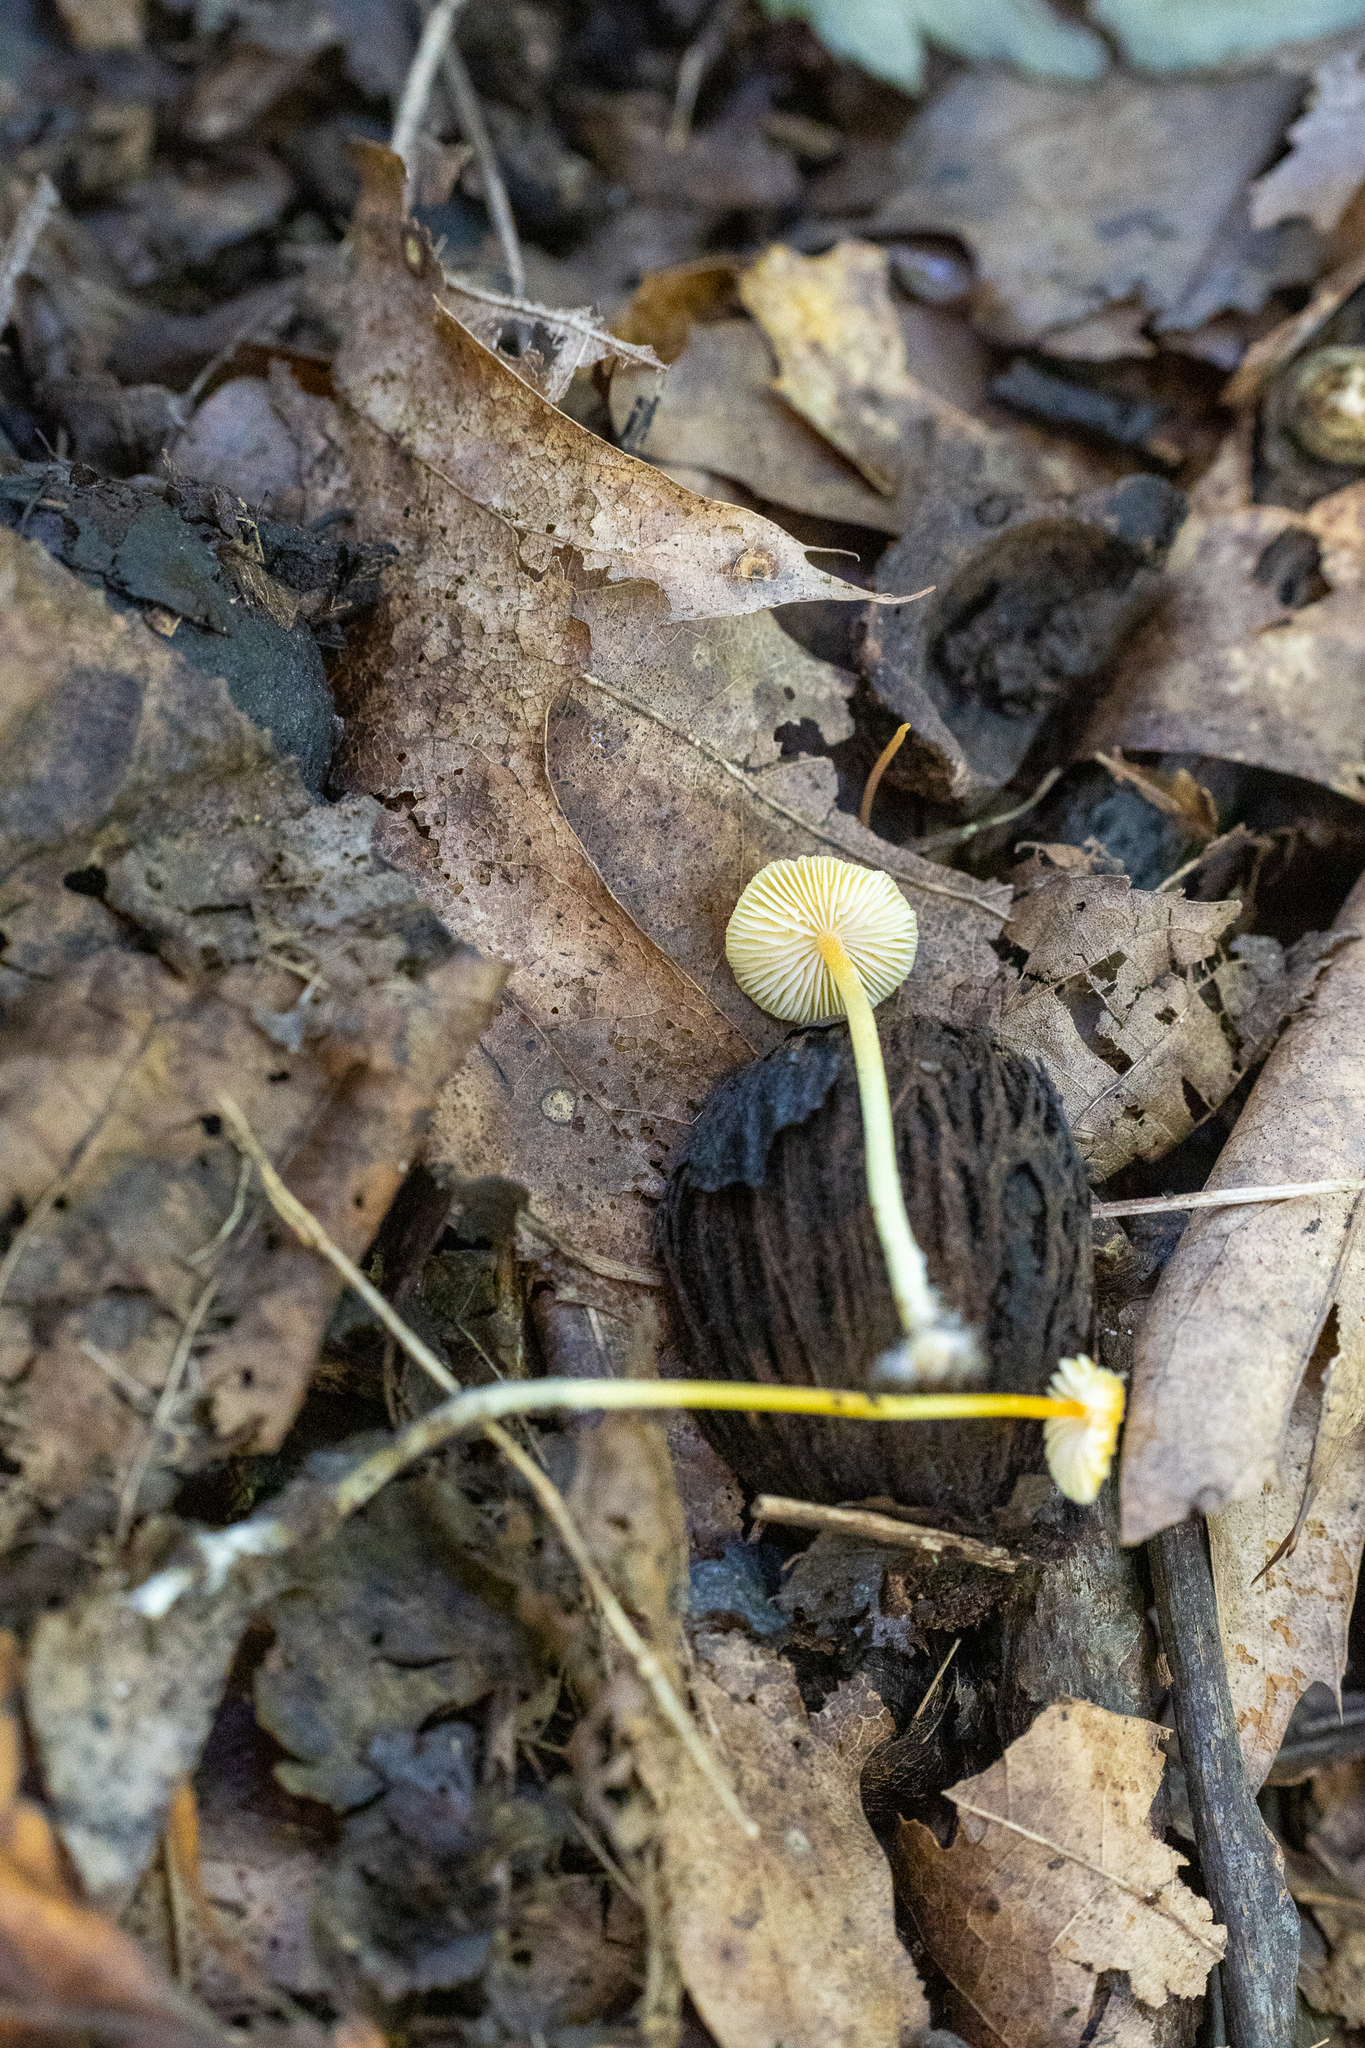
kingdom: Fungi
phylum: Basidiomycota
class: Agaricomycetes
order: Agaricales
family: Mycenaceae
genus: Mycena
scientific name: Mycena crocea
